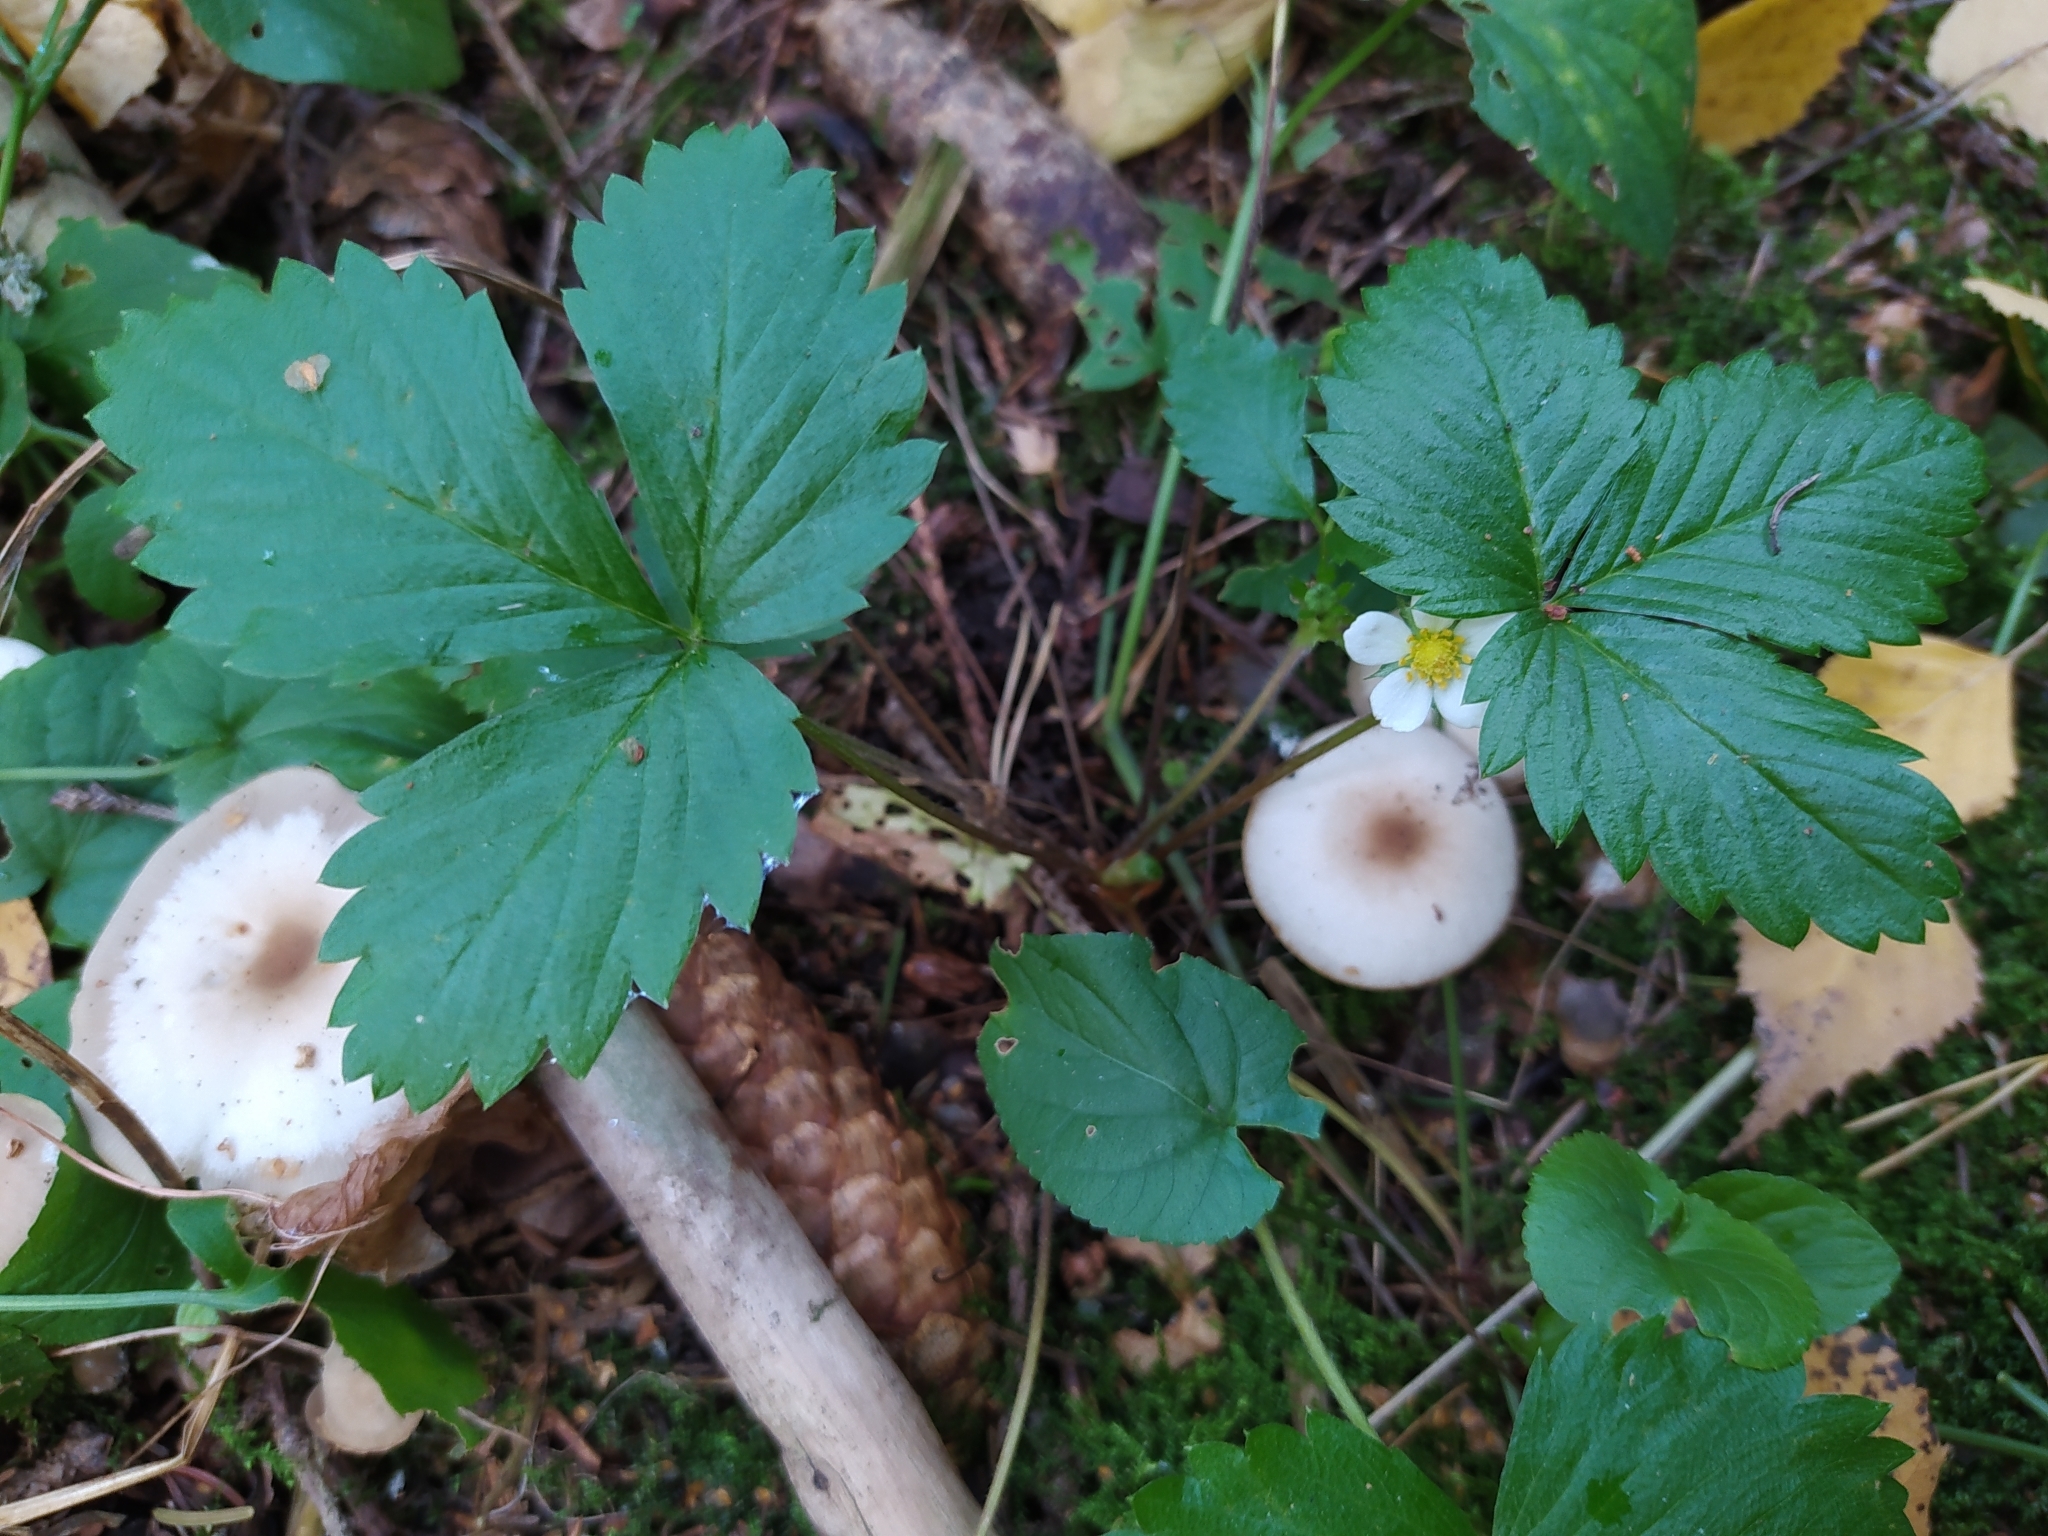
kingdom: Plantae
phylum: Tracheophyta
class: Magnoliopsida
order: Rosales
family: Rosaceae
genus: Fragaria
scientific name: Fragaria vesca
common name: Wild strawberry
